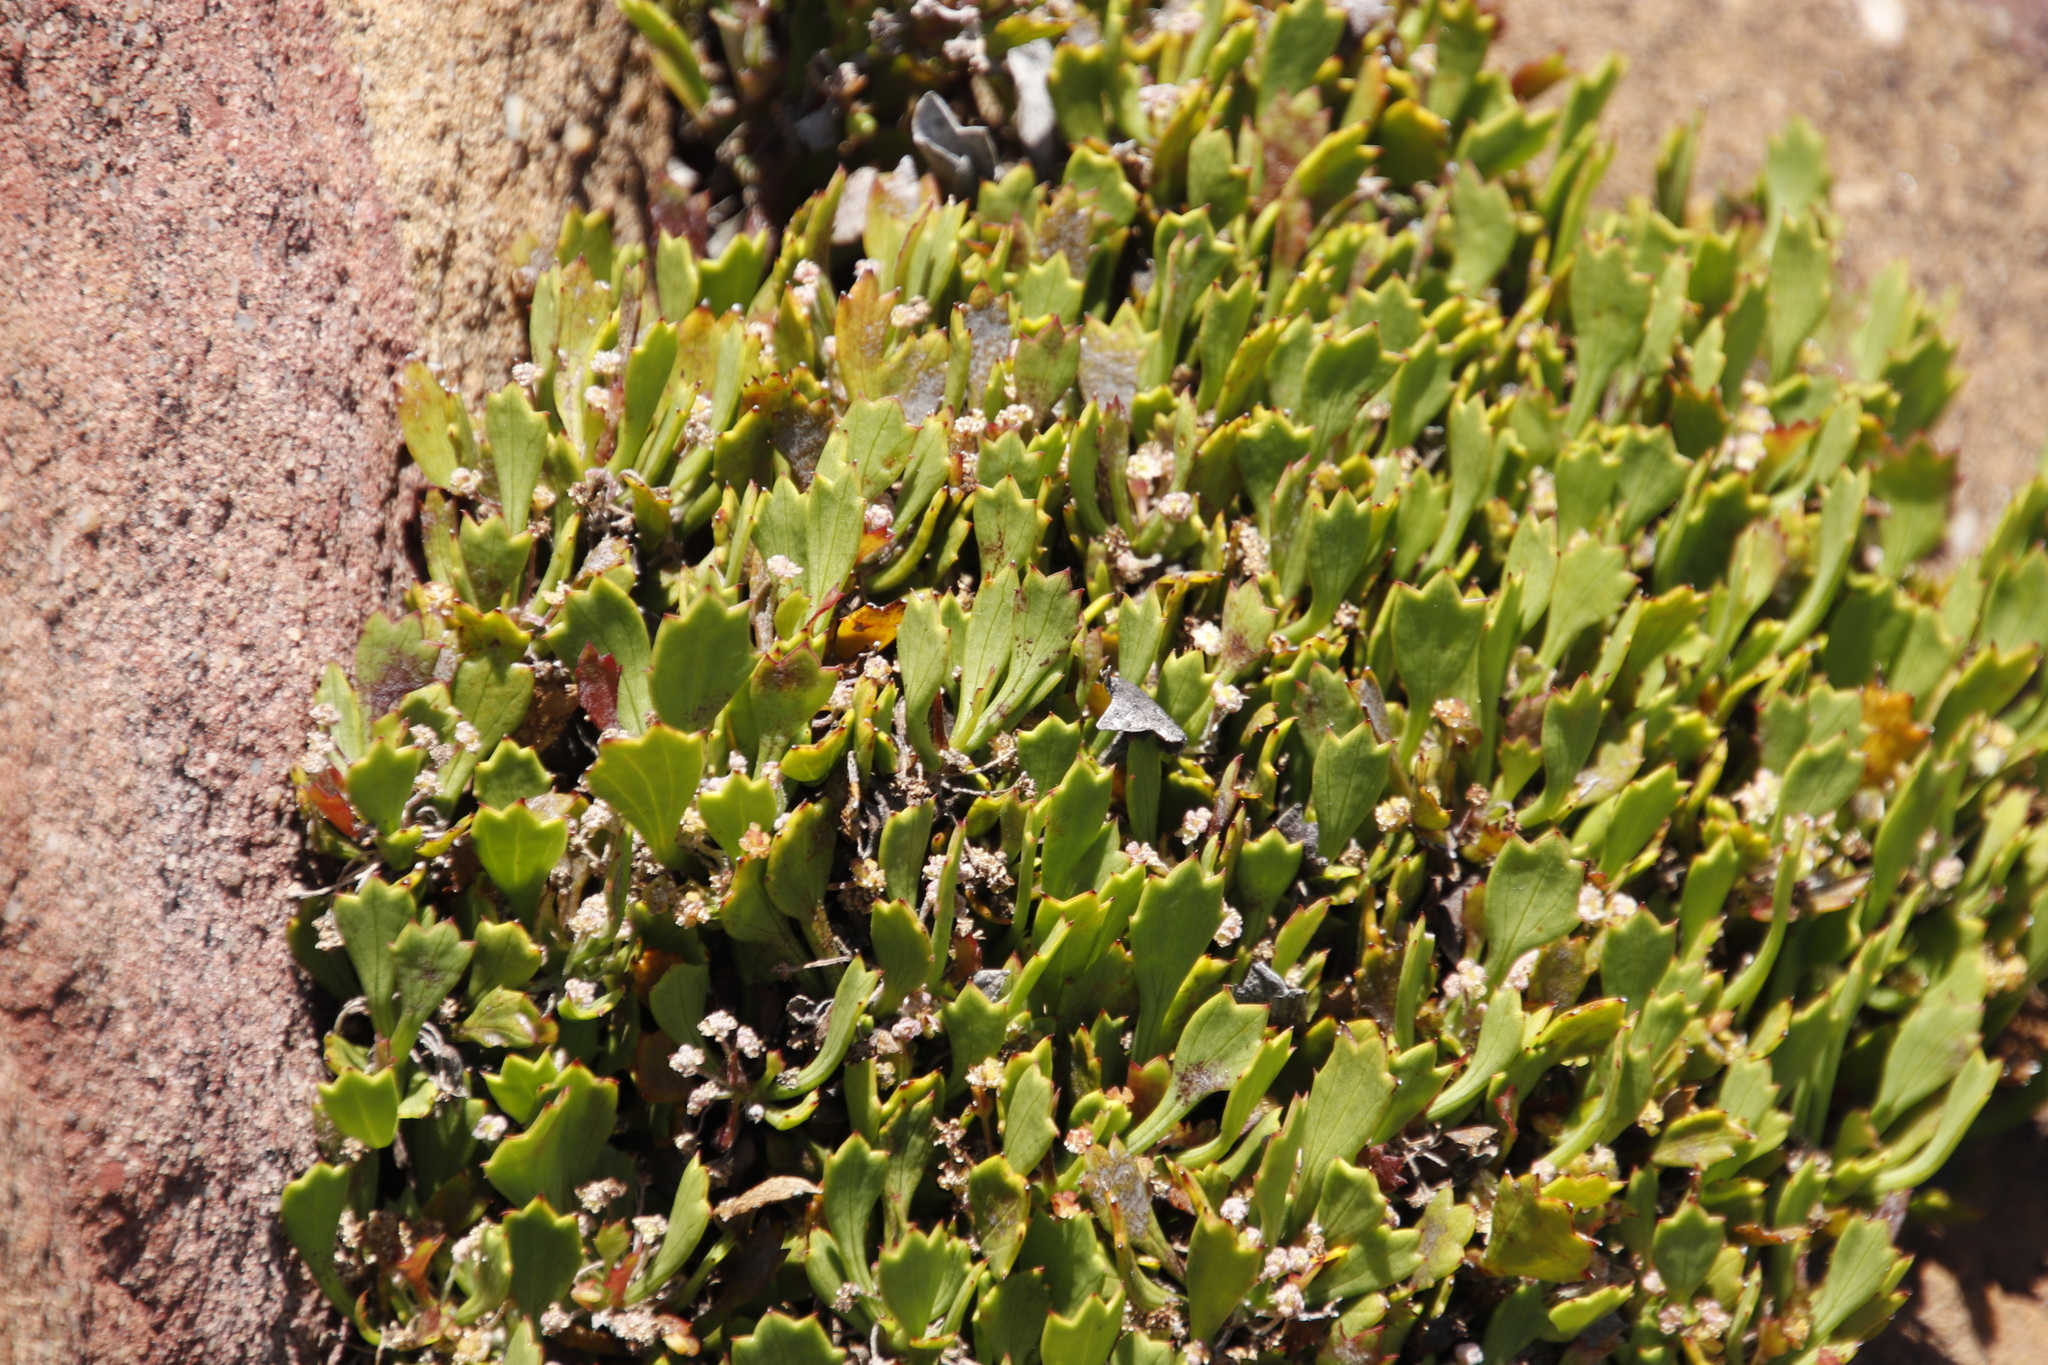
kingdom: Plantae
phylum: Tracheophyta
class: Magnoliopsida
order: Apiales
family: Apiaceae
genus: Centella
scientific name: Centella triloba
